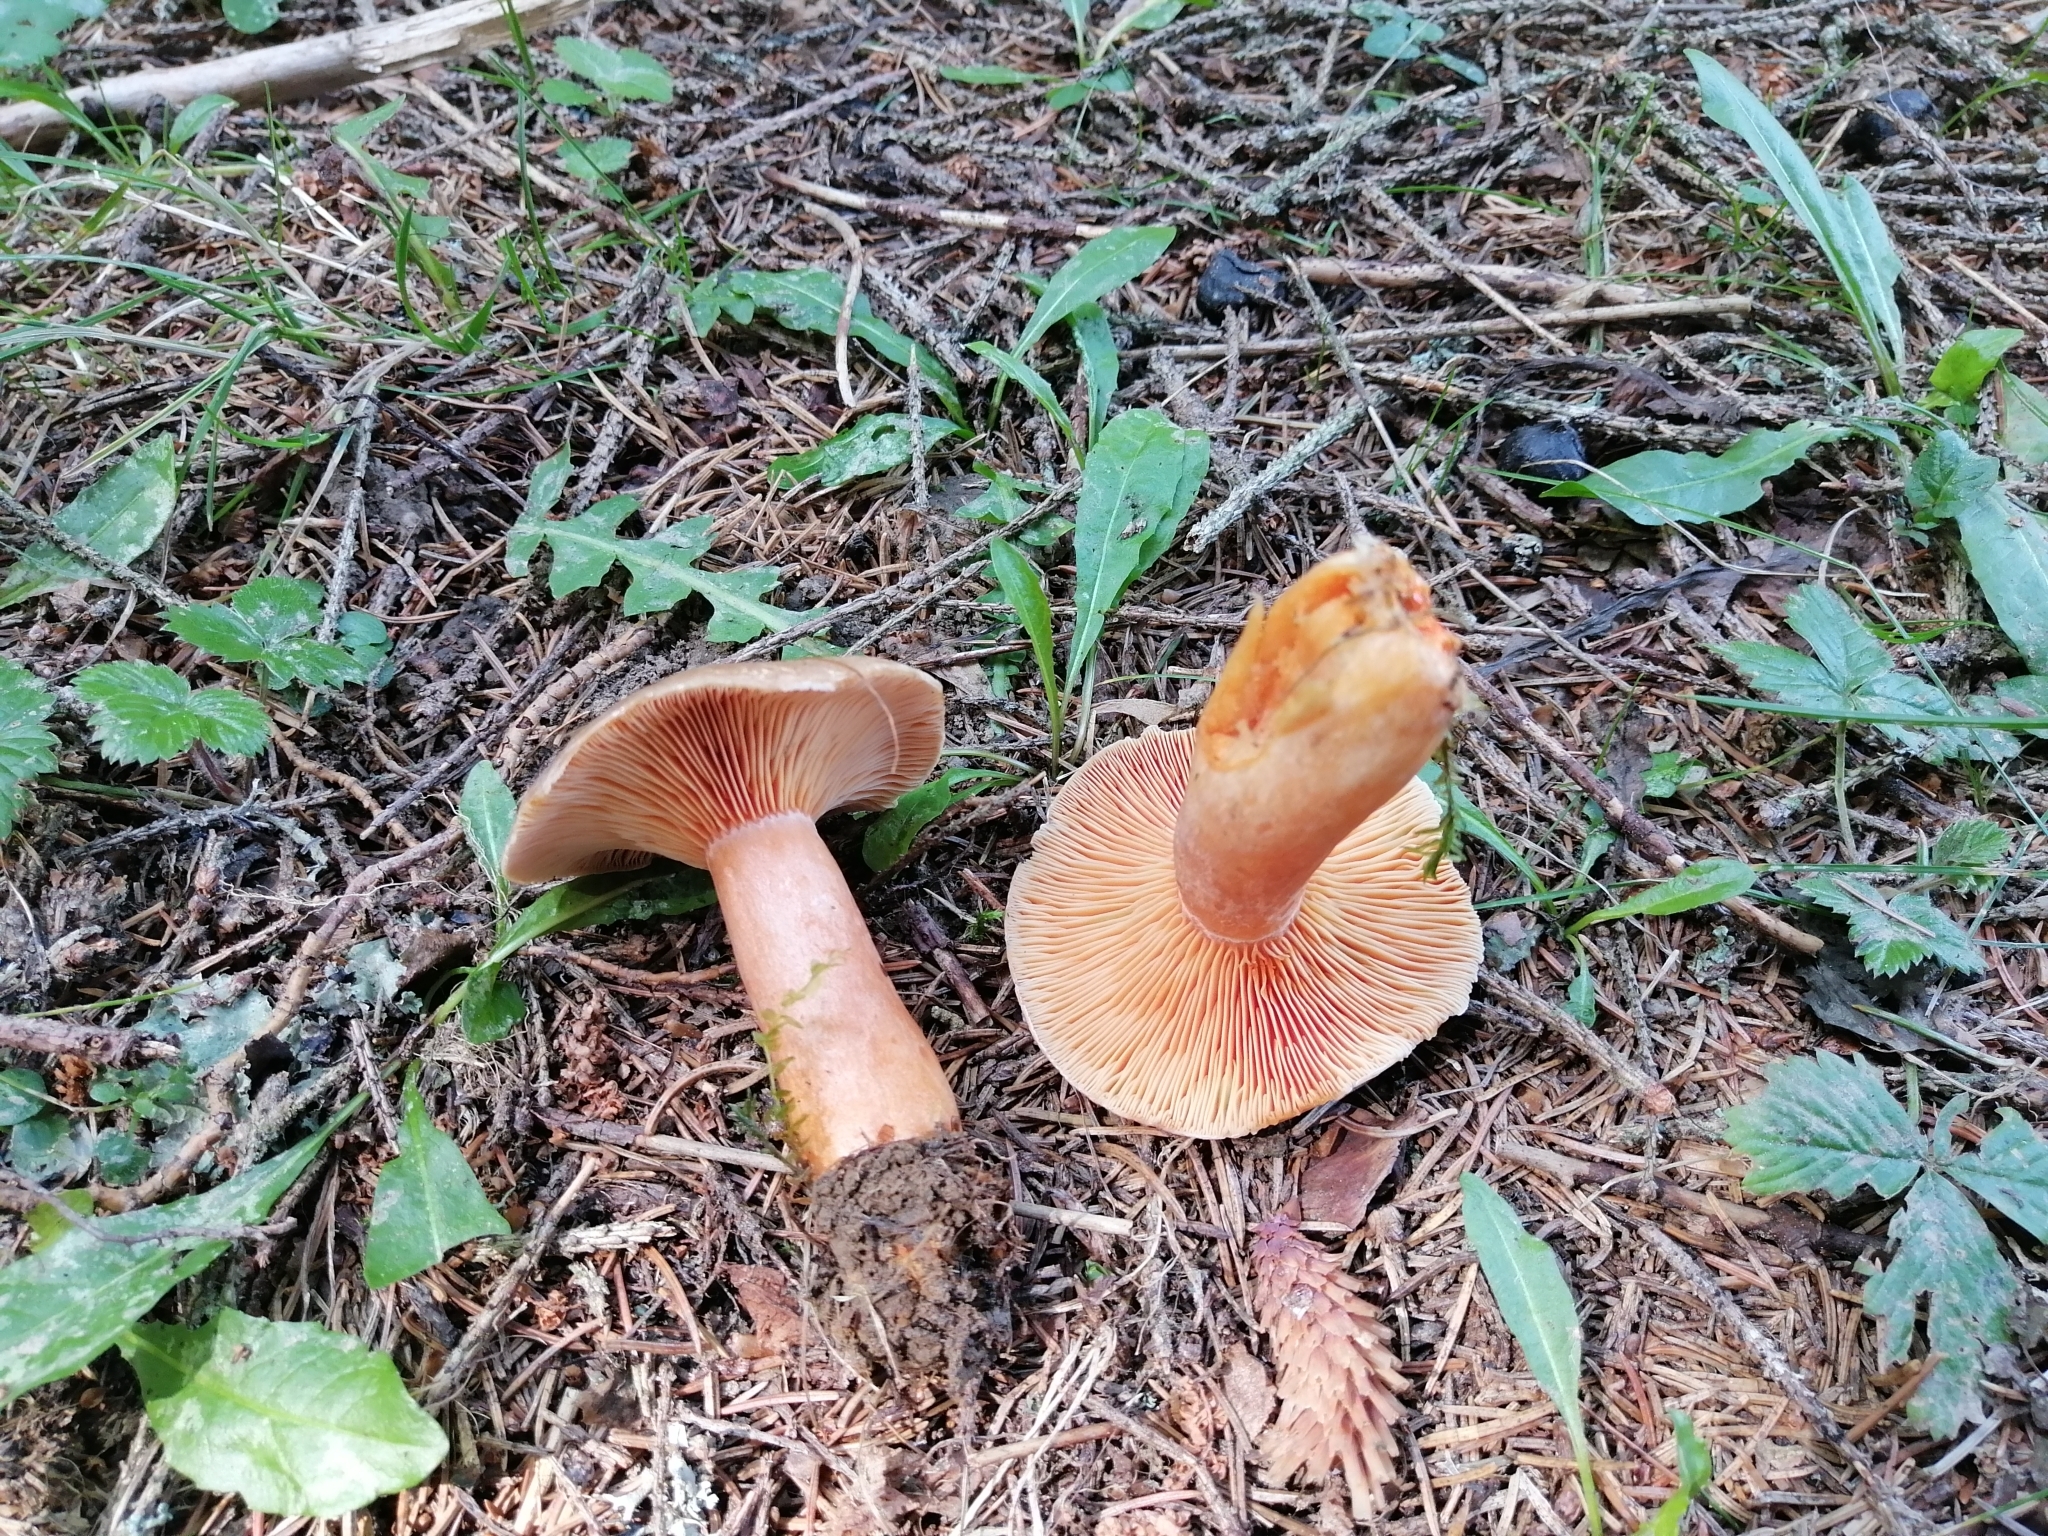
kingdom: Fungi
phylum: Basidiomycota
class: Agaricomycetes
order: Russulales
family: Russulaceae
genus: Lactarius
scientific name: Lactarius deterrimus
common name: False saffron milkcap
